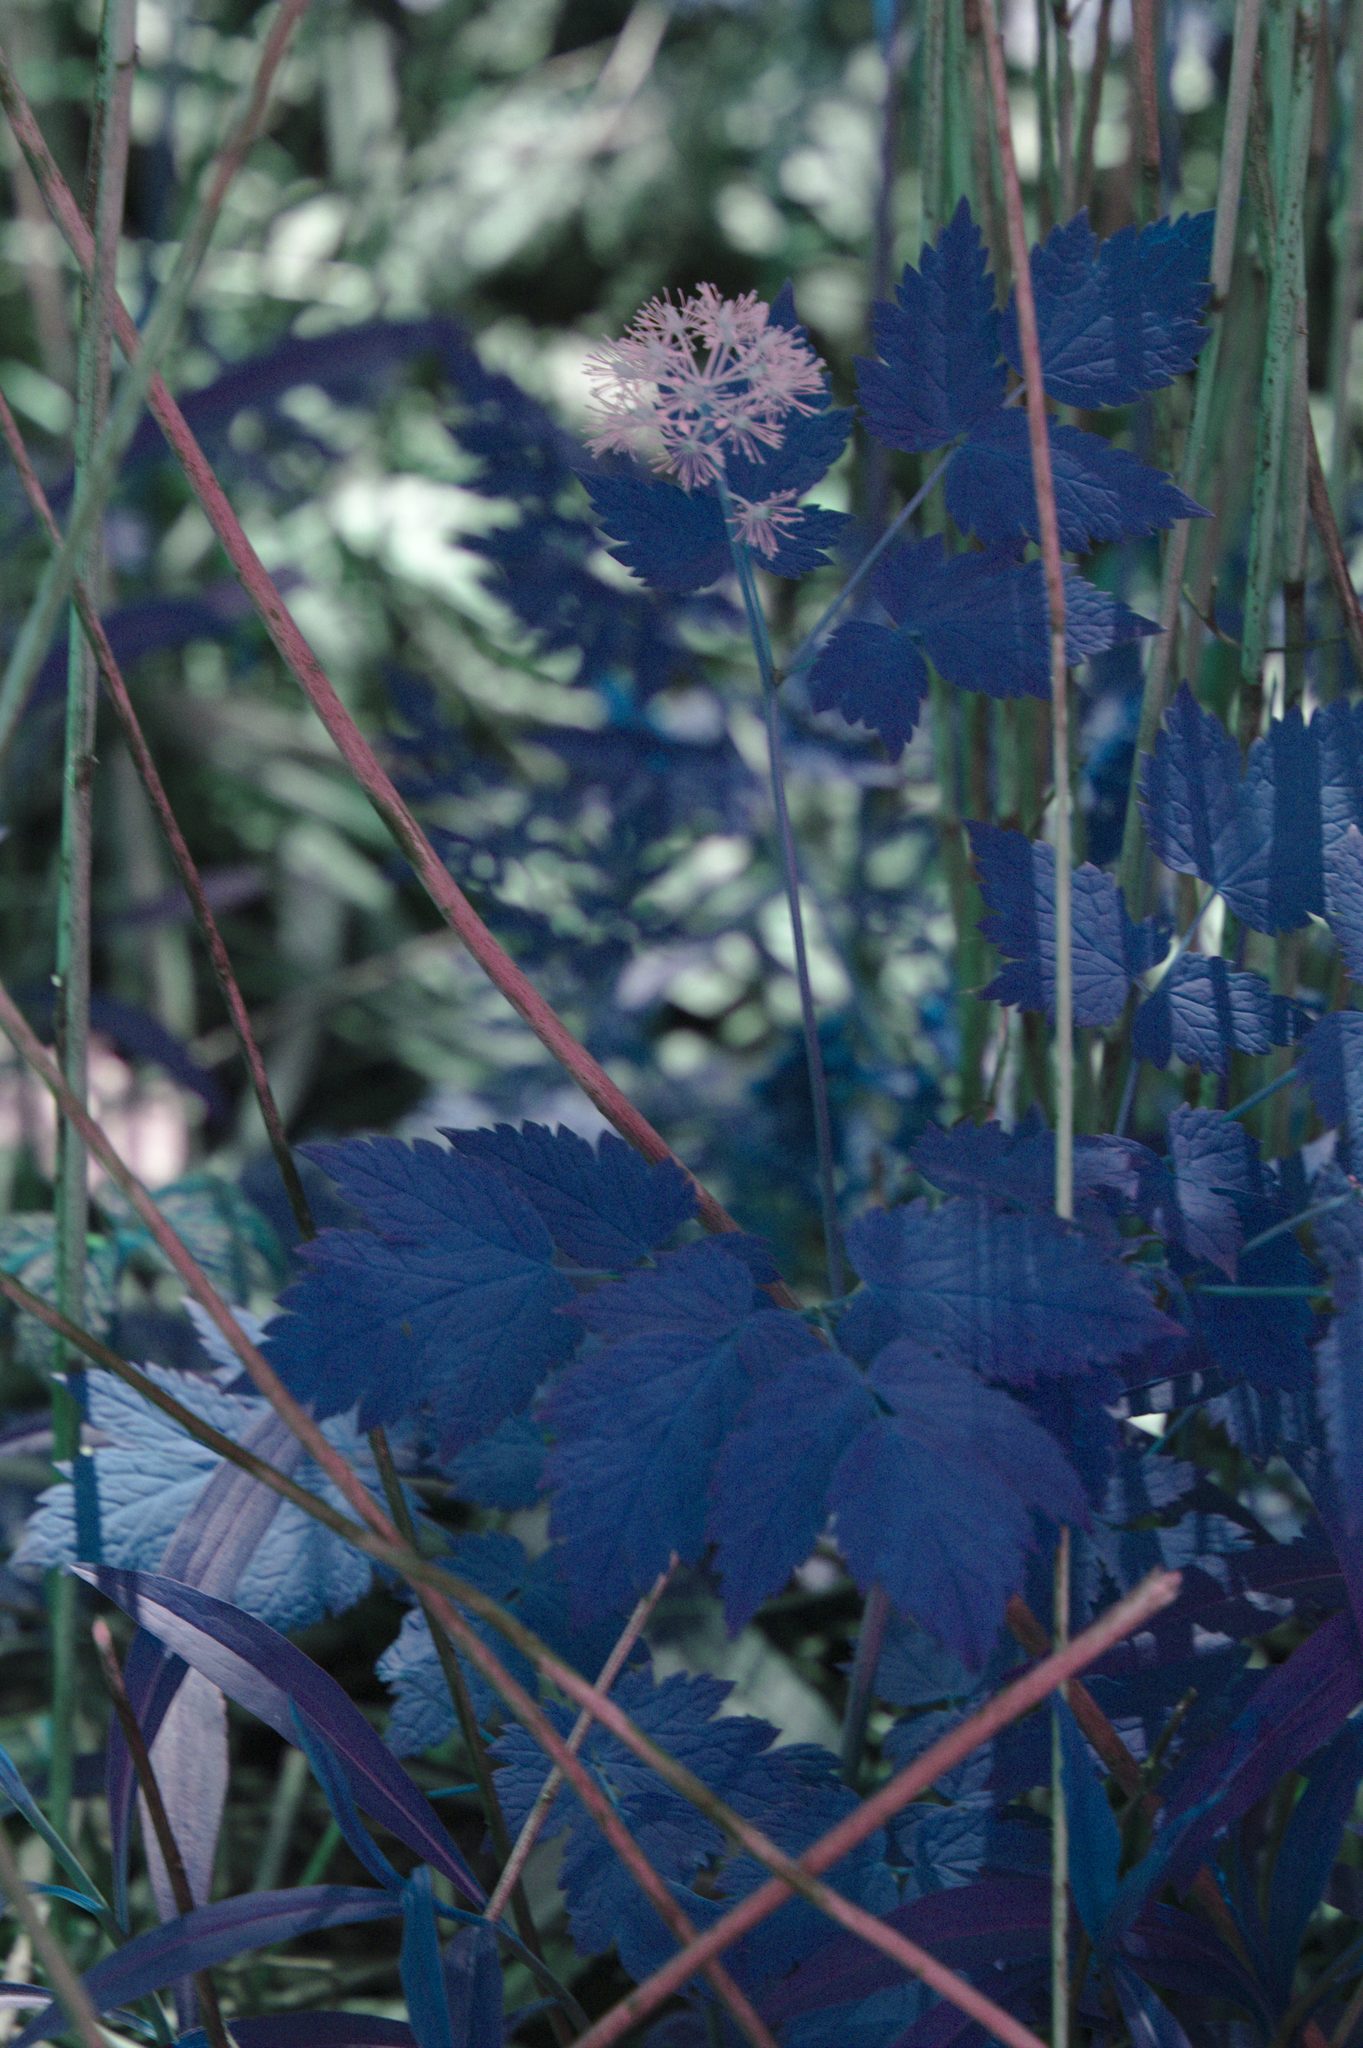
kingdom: Plantae
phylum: Tracheophyta
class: Magnoliopsida
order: Ranunculales
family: Ranunculaceae
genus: Actaea
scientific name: Actaea rubra
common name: Red baneberry
